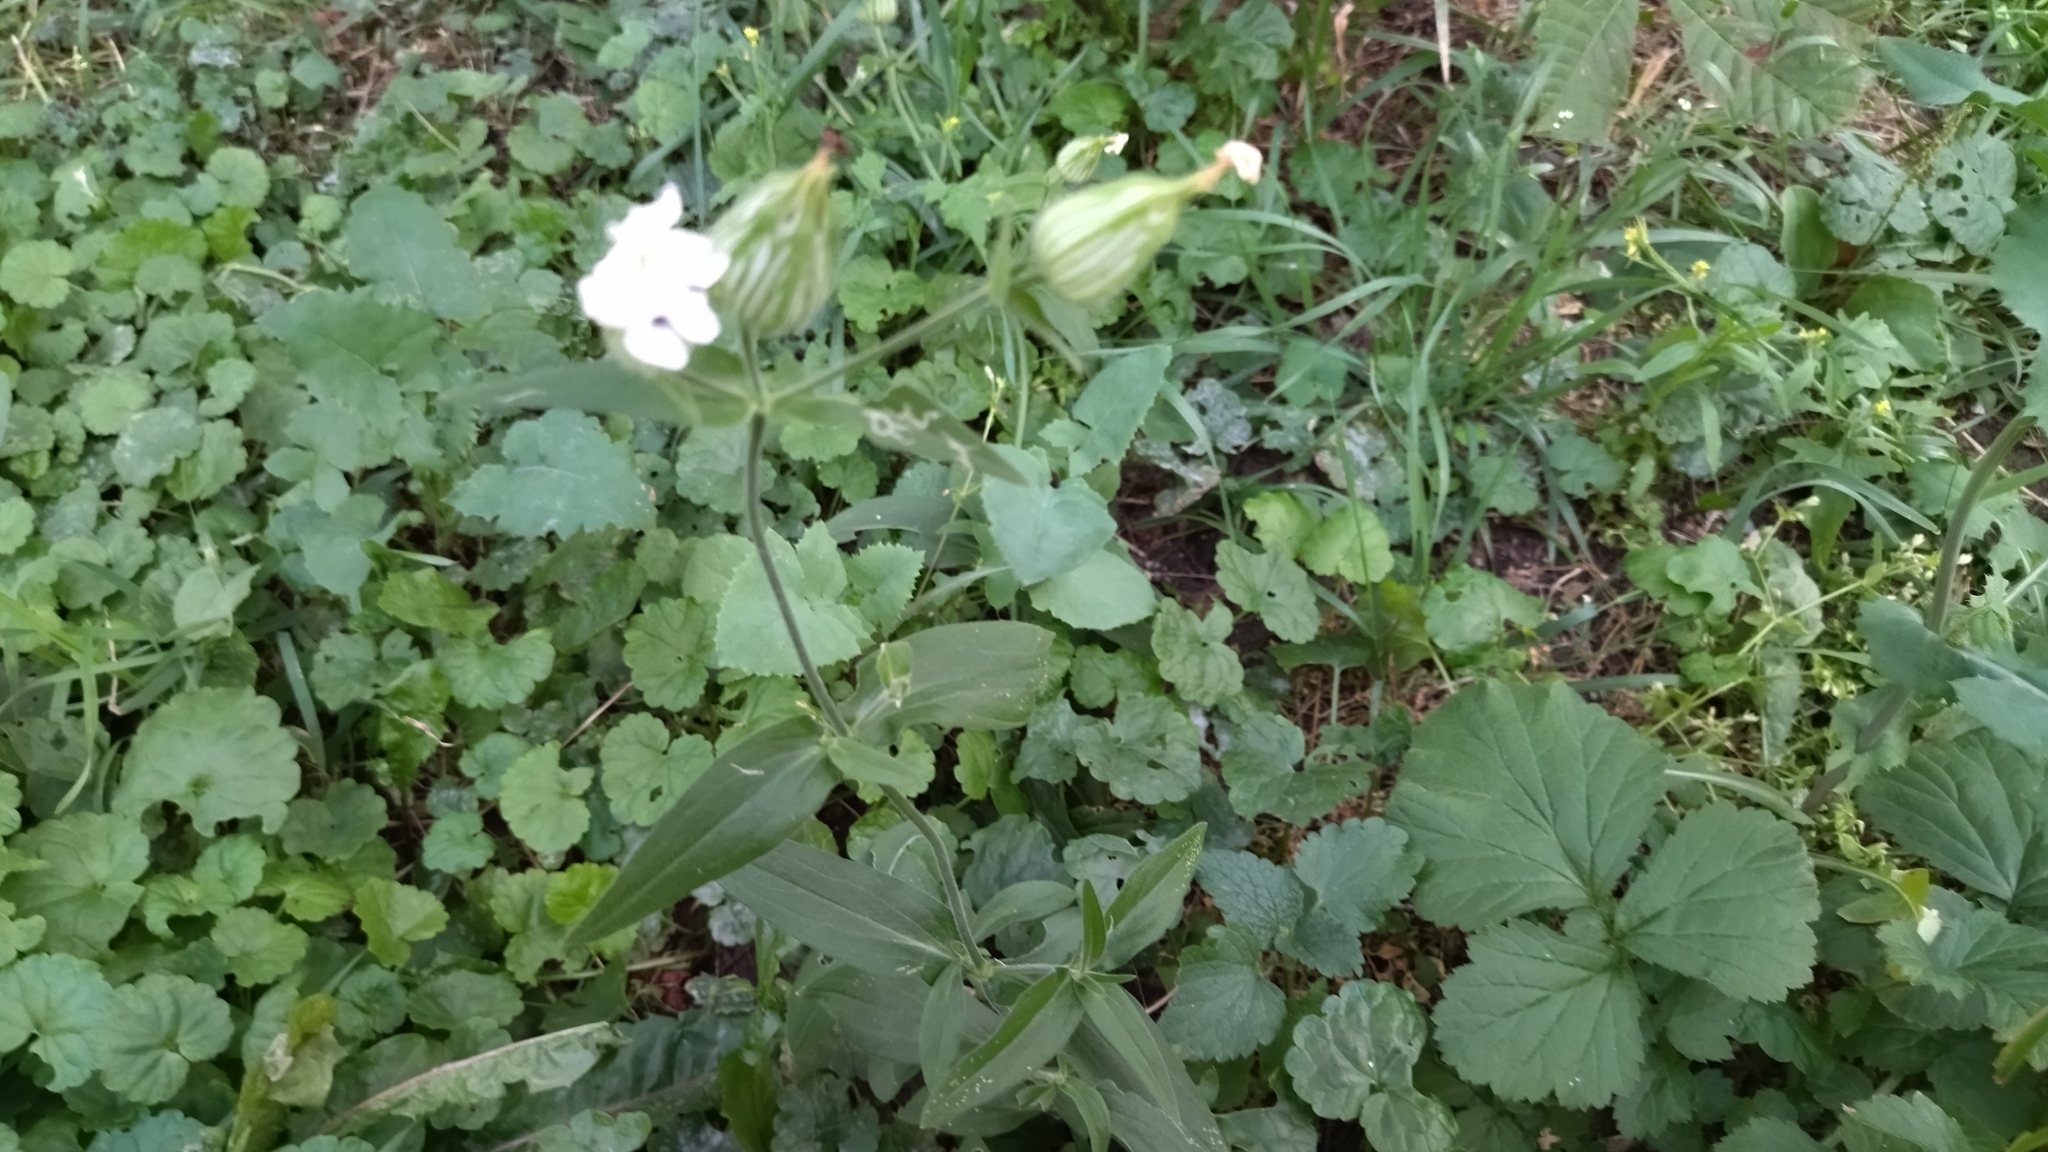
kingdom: Plantae
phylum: Tracheophyta
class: Magnoliopsida
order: Caryophyllales
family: Caryophyllaceae
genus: Silene
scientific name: Silene latifolia
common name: White campion
